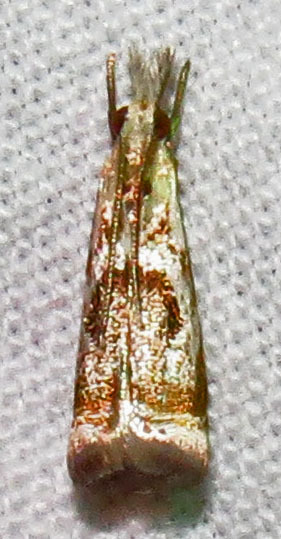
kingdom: Animalia
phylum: Arthropoda
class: Insecta
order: Lepidoptera
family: Crambidae
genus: Microcrambus
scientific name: Microcrambus elegans
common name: Elegant grass-veneer
